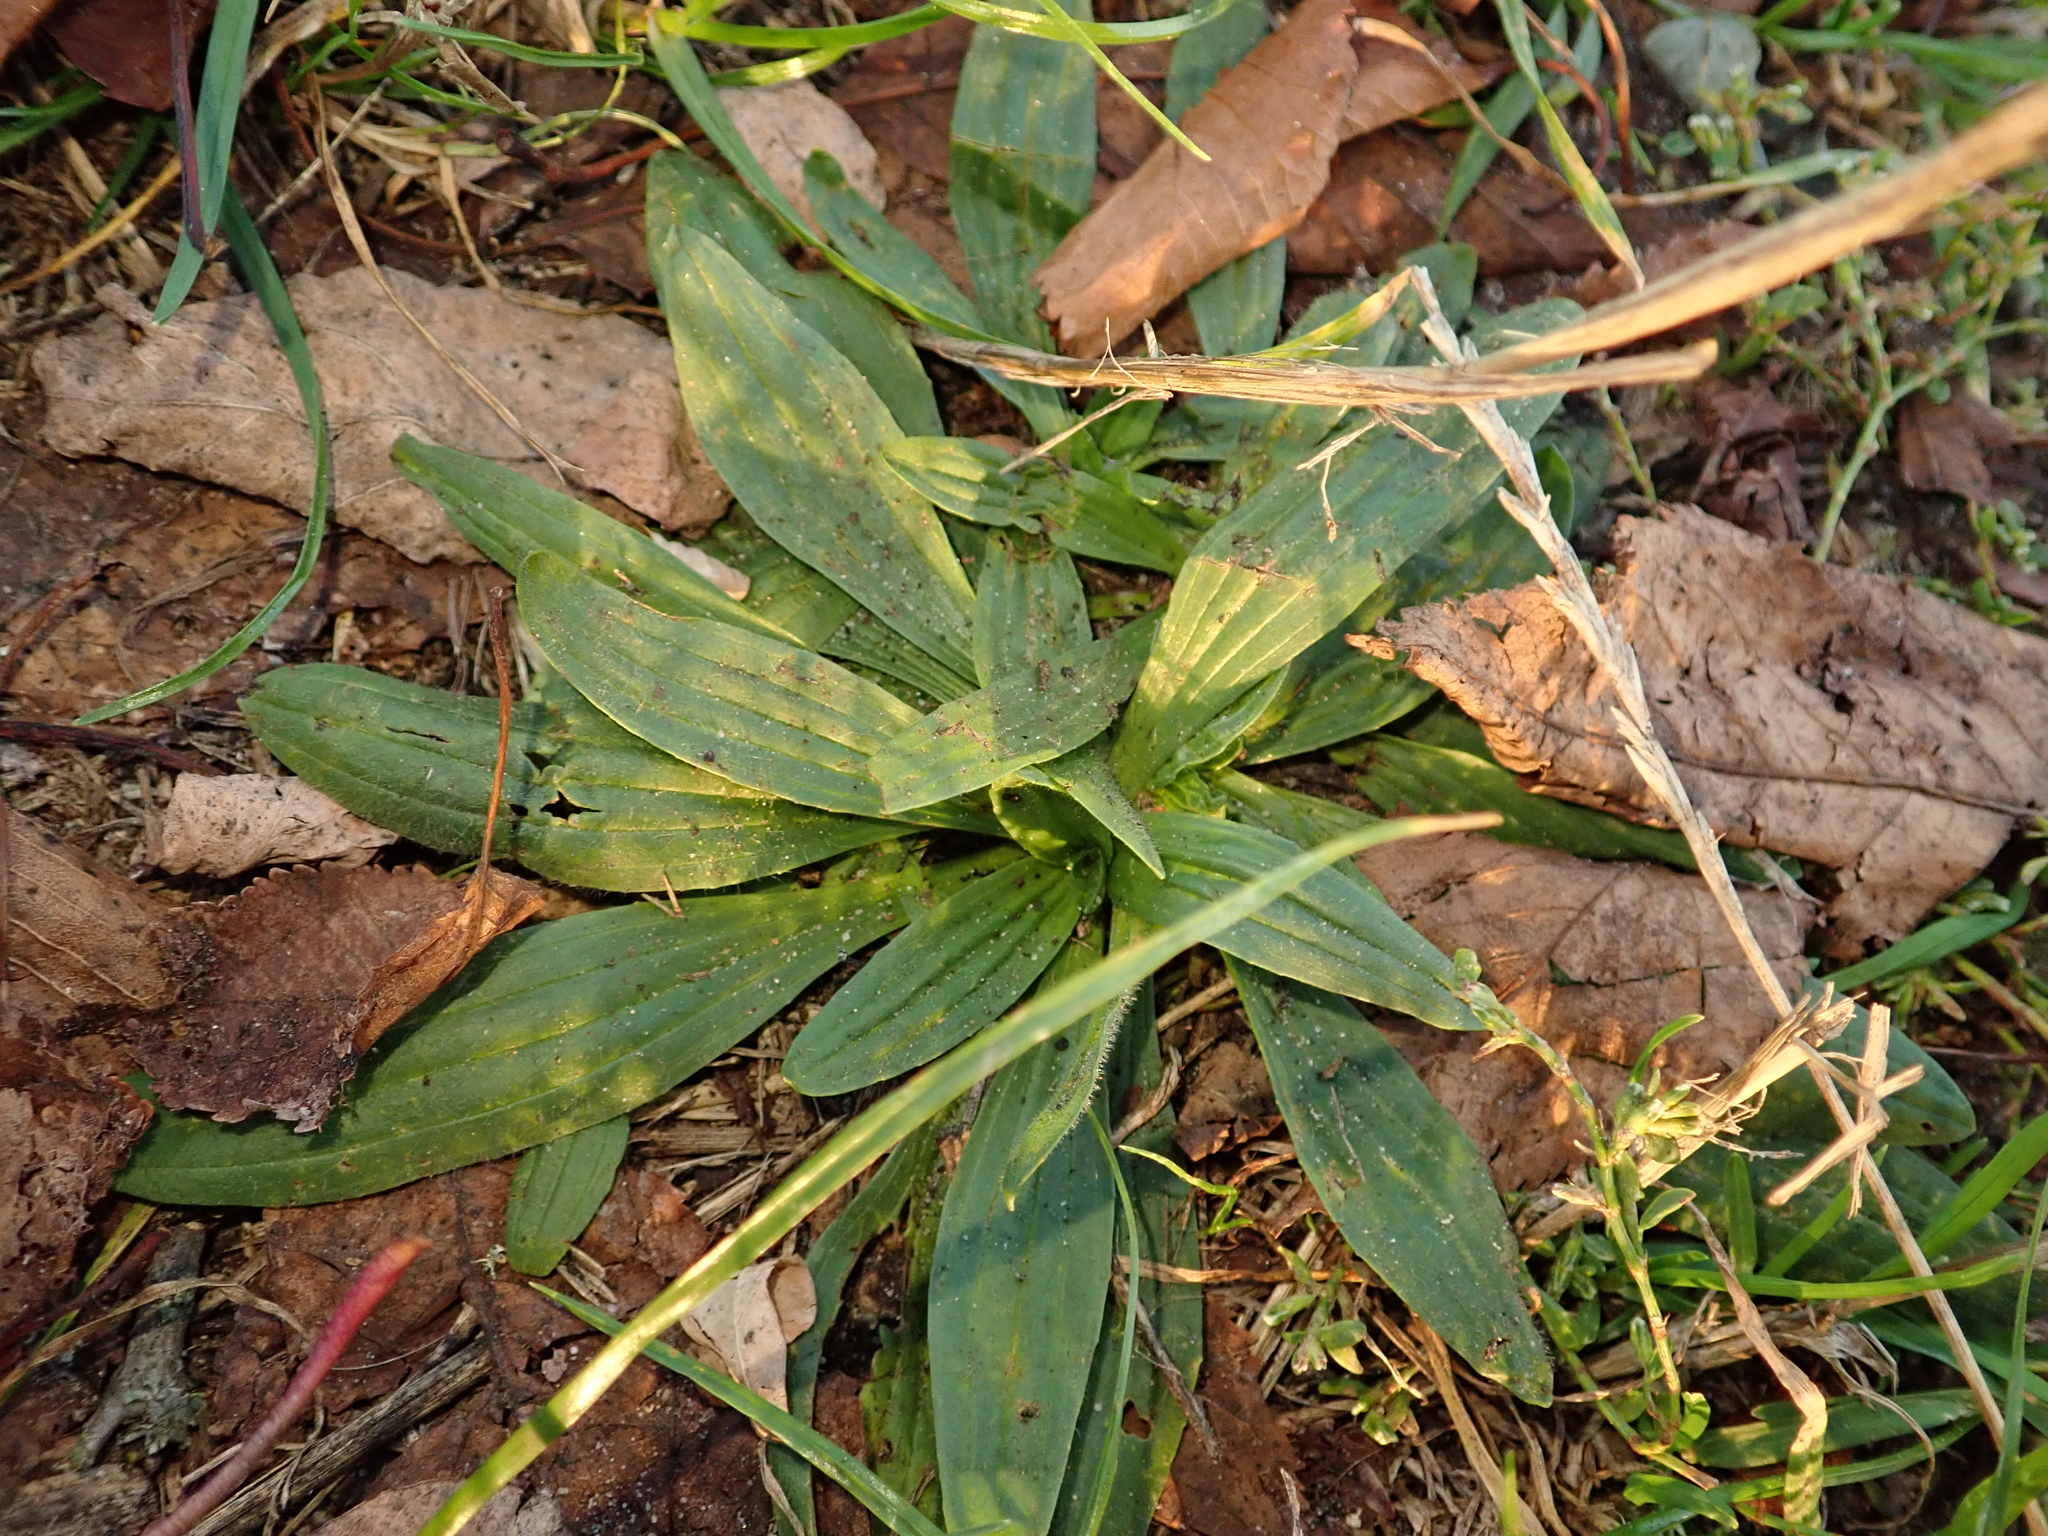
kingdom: Plantae
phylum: Tracheophyta
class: Magnoliopsida
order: Lamiales
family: Plantaginaceae
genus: Plantago
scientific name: Plantago lanceolata
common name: Ribwort plantain
